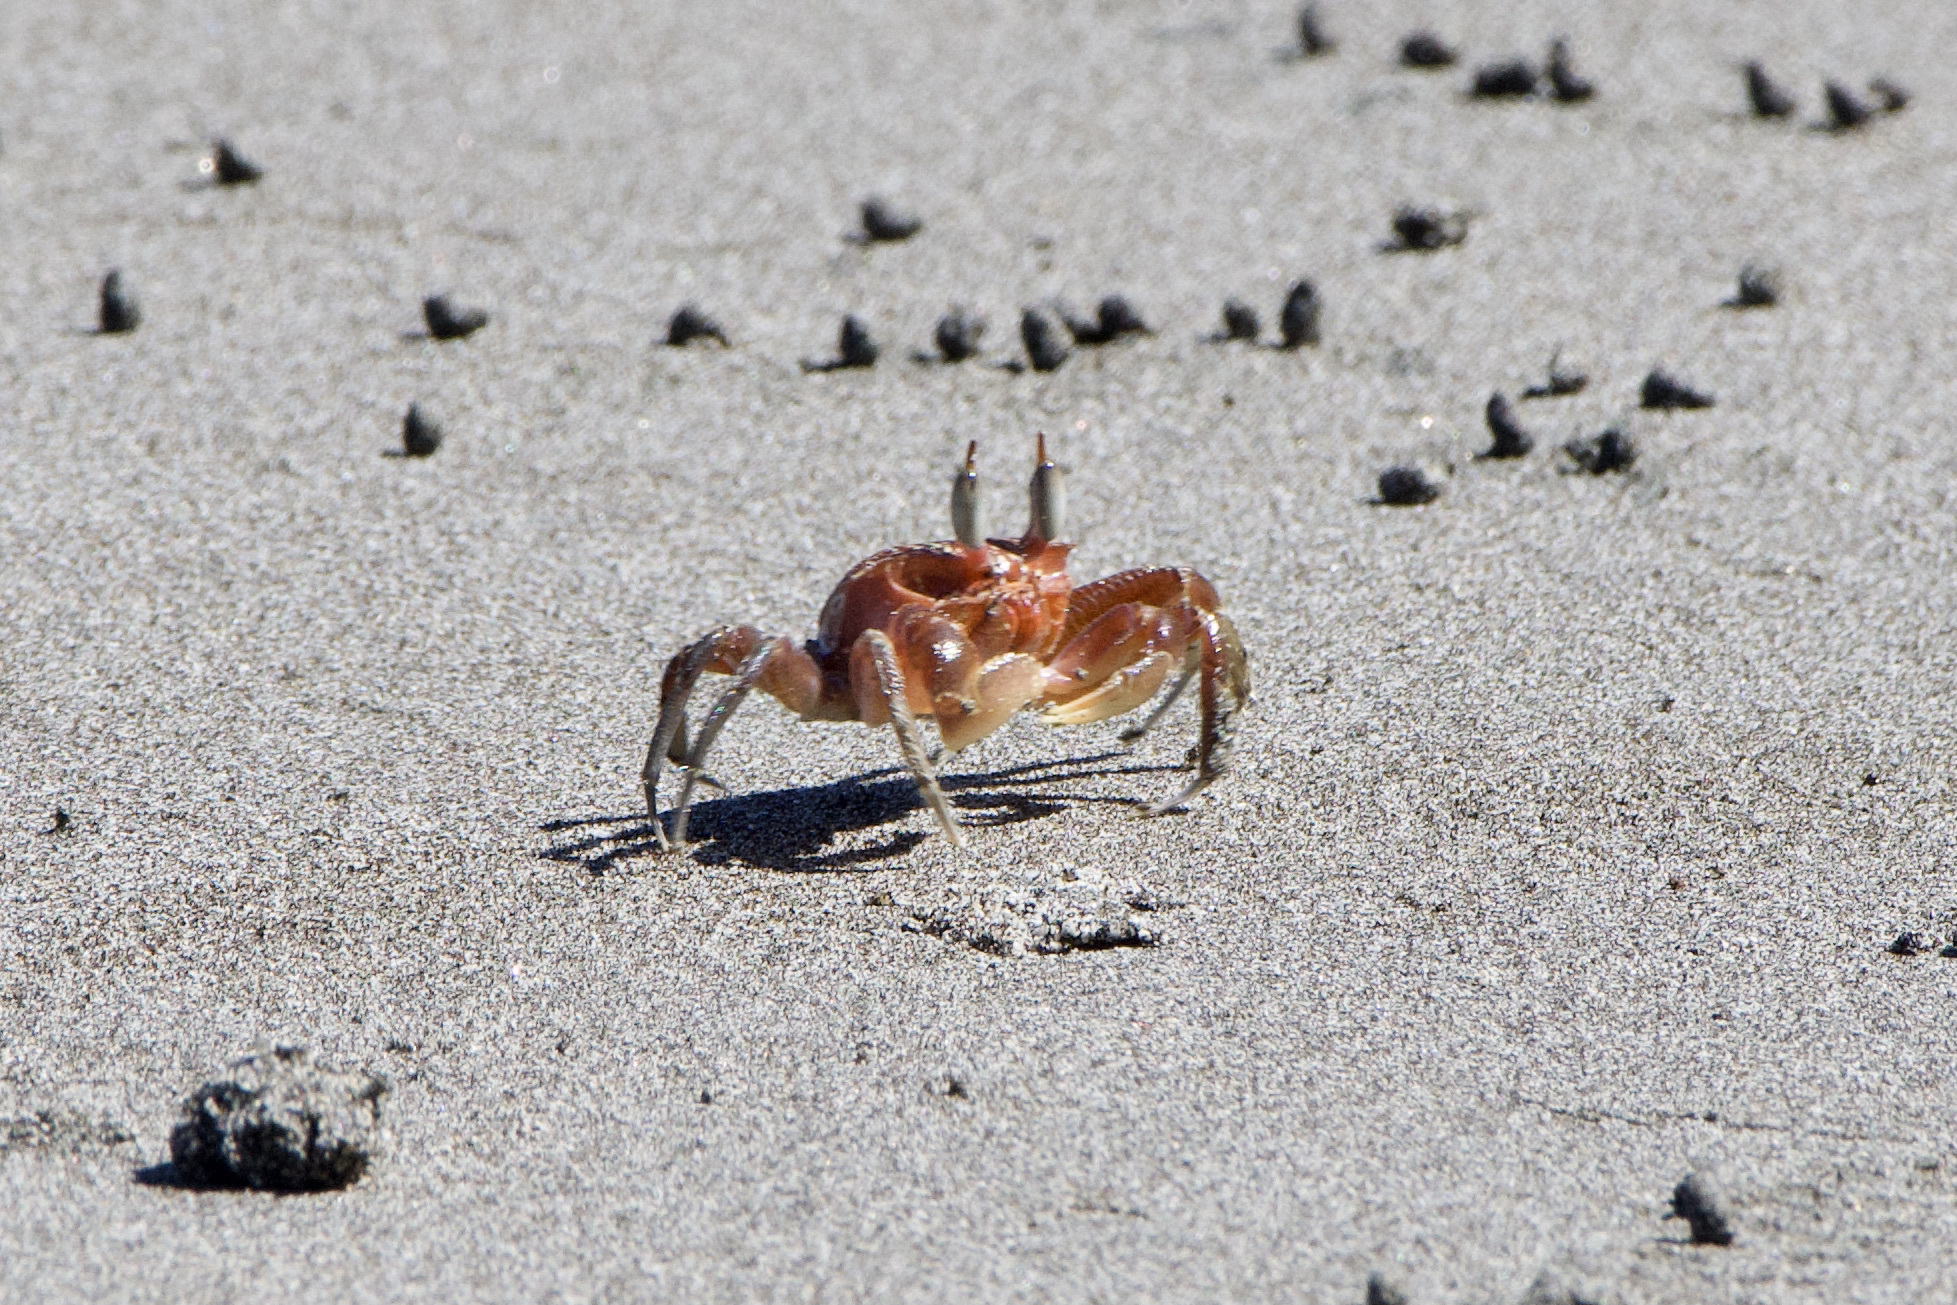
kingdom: Animalia
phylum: Arthropoda
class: Malacostraca
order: Decapoda
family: Ocypodidae
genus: Ocypode
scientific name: Ocypode gaudichaudii
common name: Pacific ghost crab
